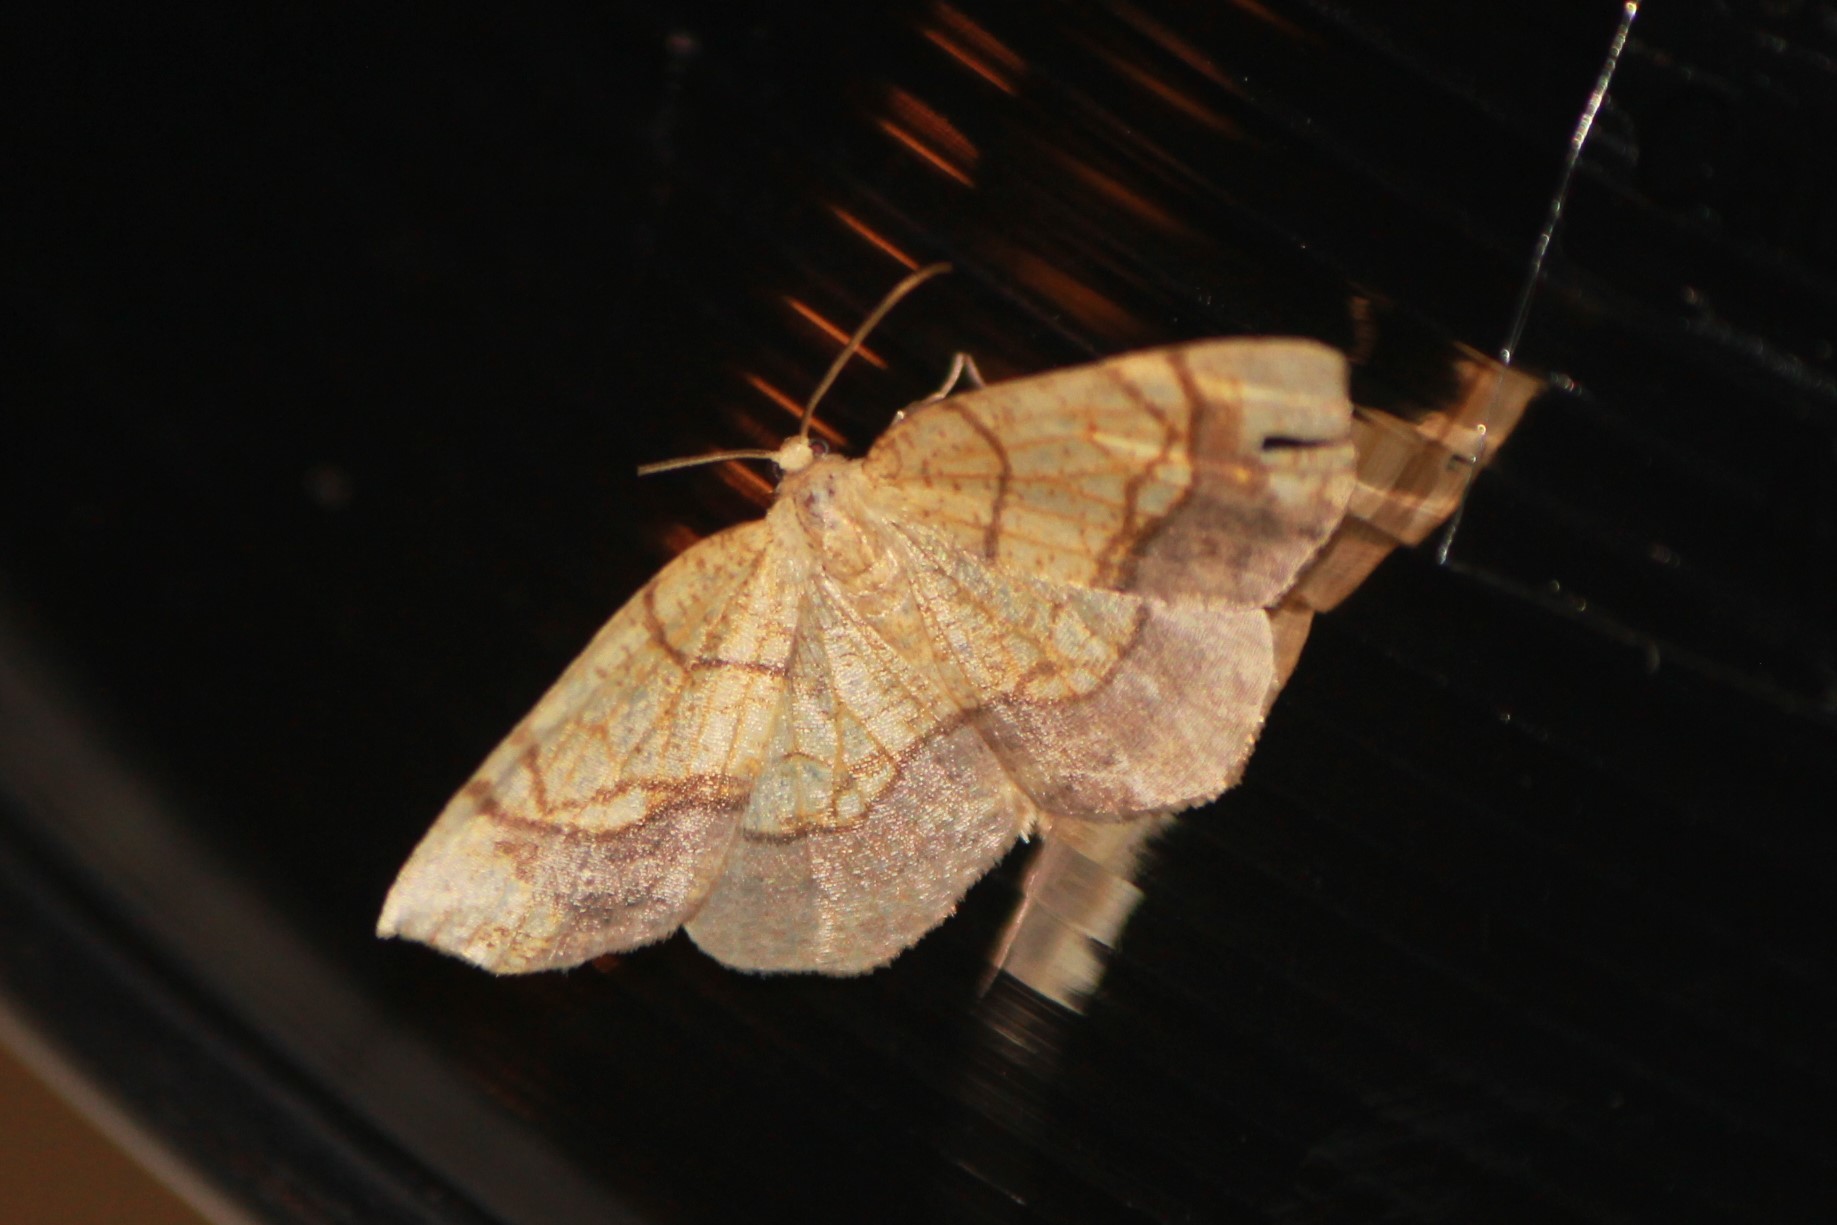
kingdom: Animalia
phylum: Arthropoda
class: Insecta
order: Lepidoptera
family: Geometridae
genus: Nematocampa
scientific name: Nematocampa resistaria
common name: Horned spanworm moth
